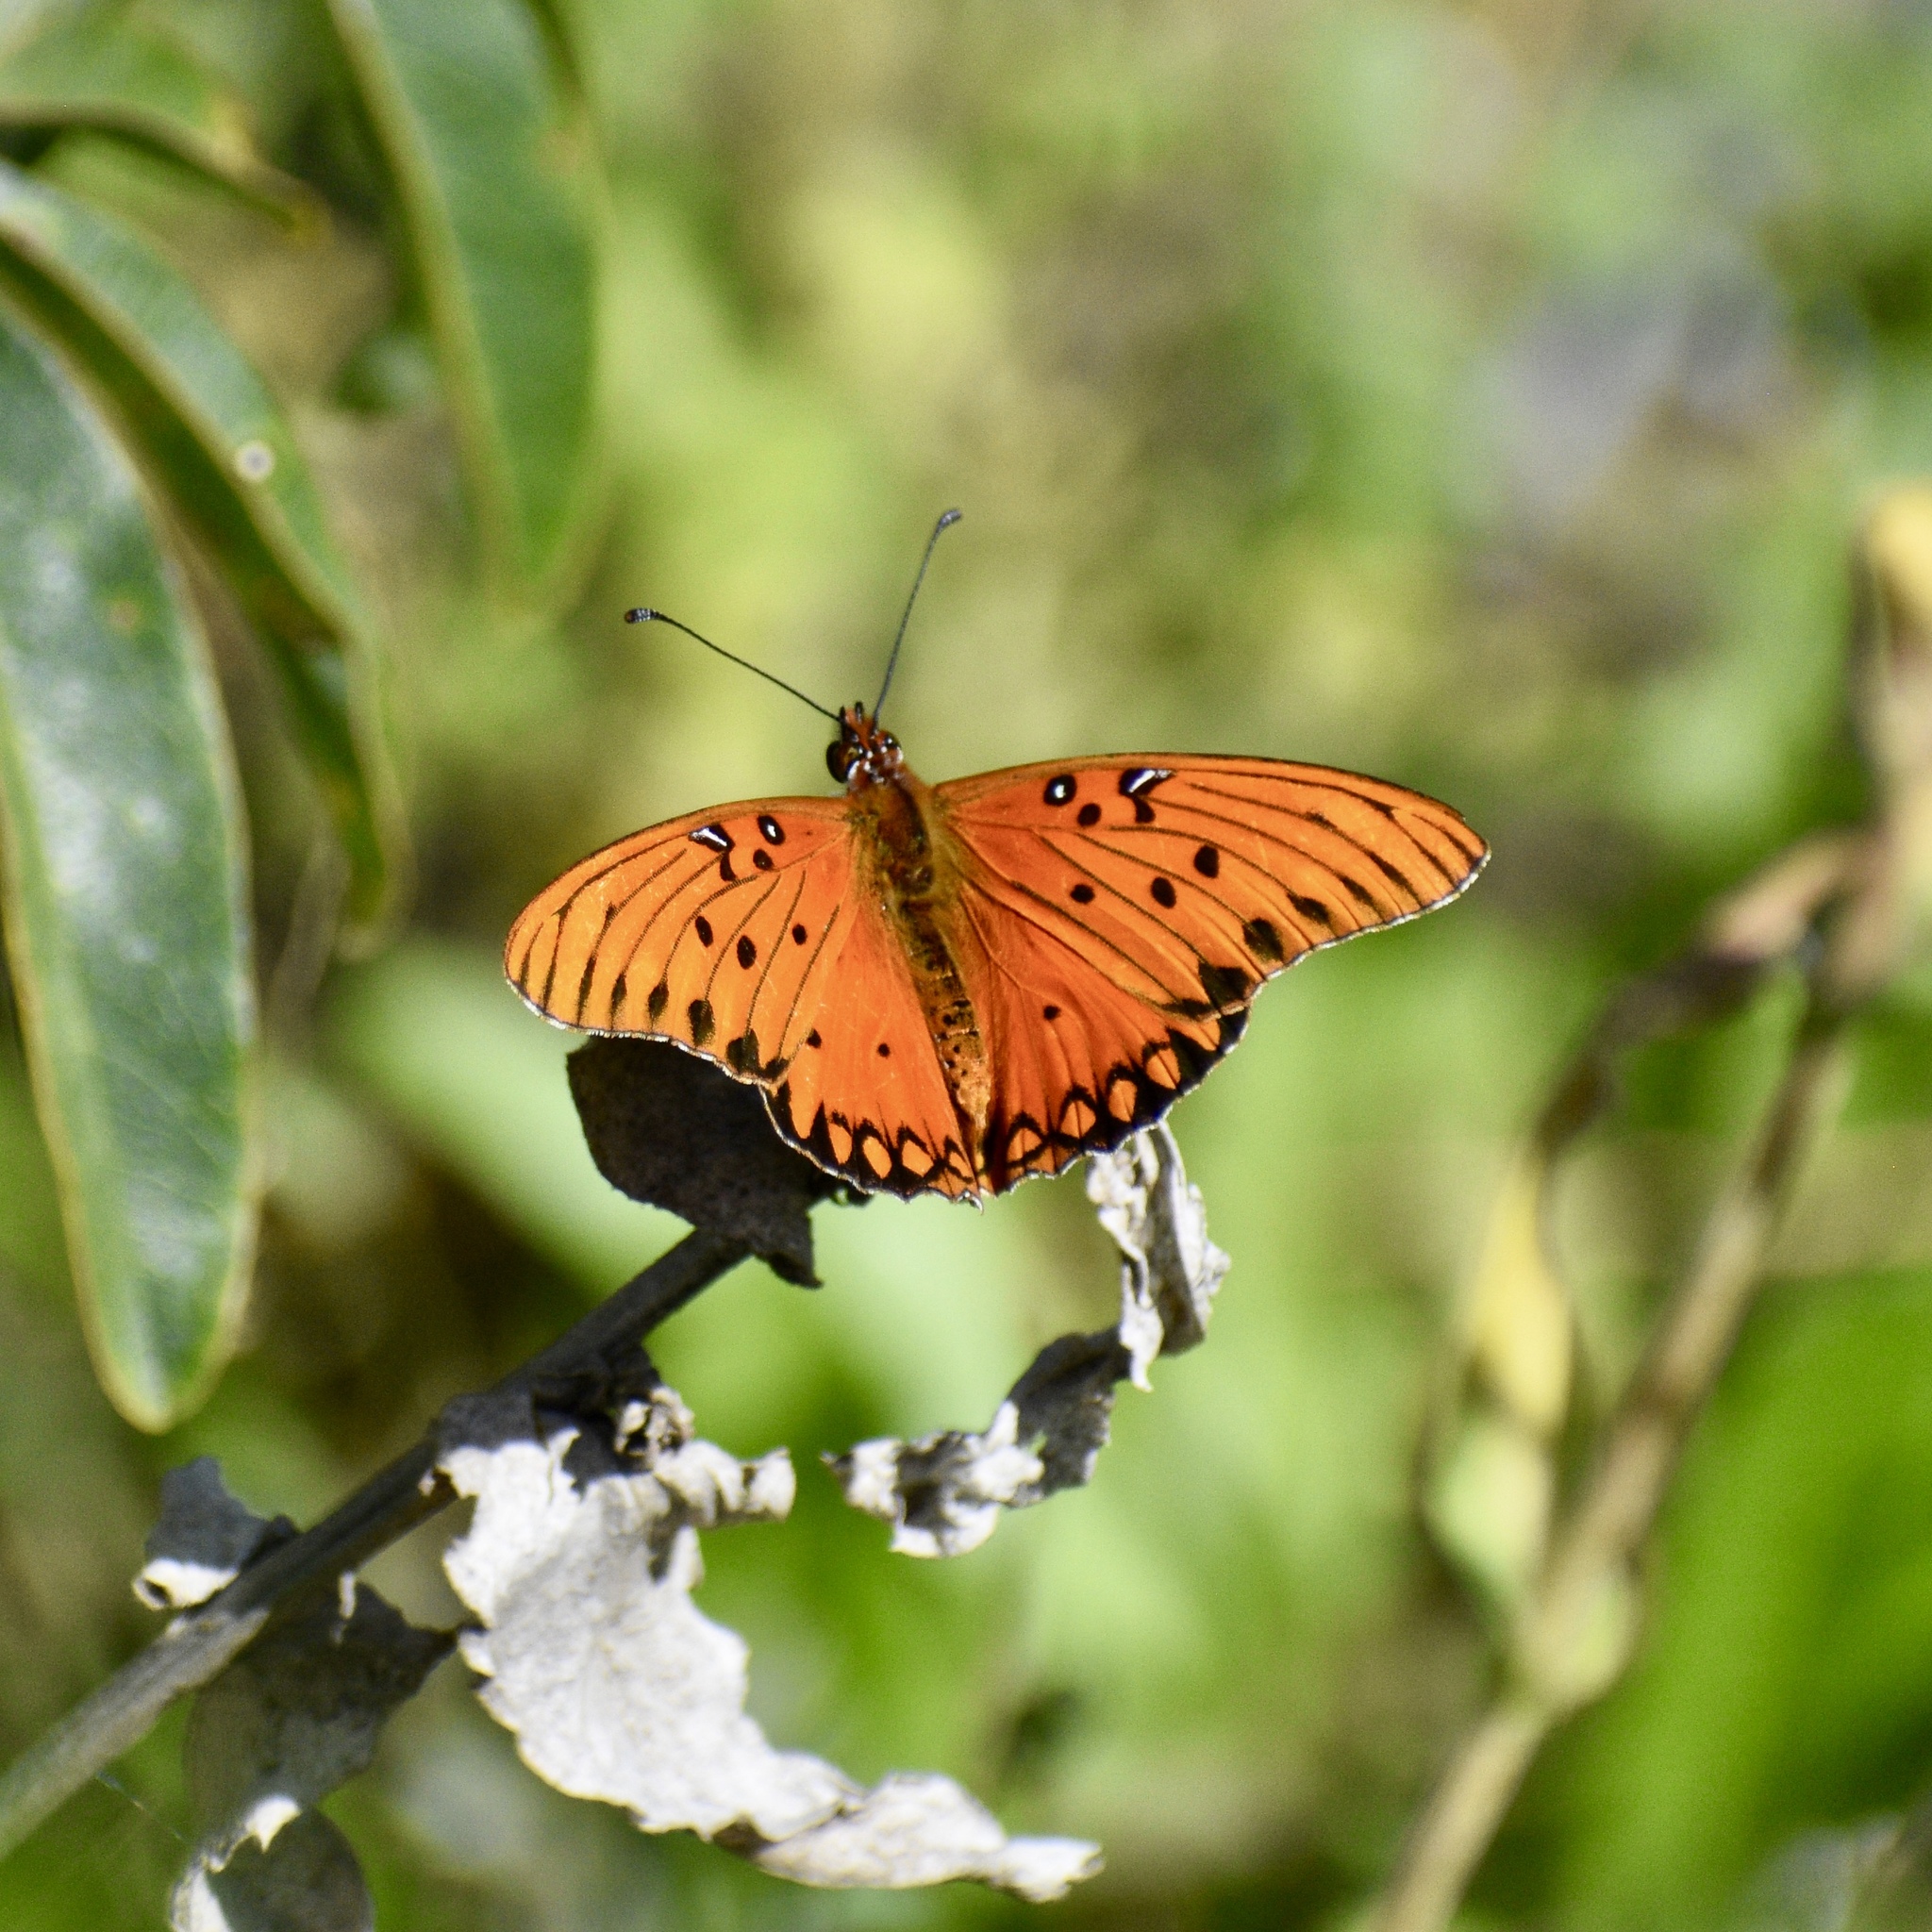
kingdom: Animalia
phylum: Arthropoda
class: Insecta
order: Lepidoptera
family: Nymphalidae
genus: Dione
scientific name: Dione vanillae
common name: Gulf fritillary
